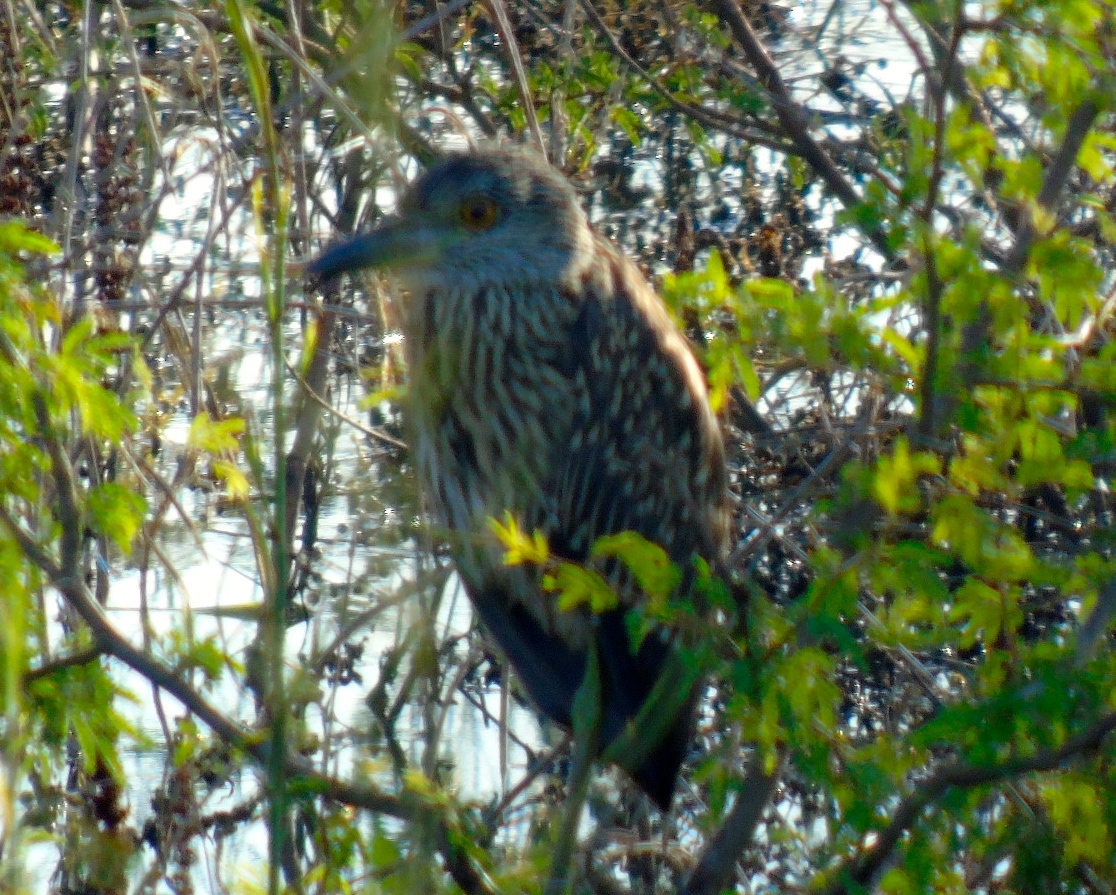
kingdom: Animalia
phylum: Chordata
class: Aves
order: Pelecaniformes
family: Ardeidae
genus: Nyctanassa
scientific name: Nyctanassa violacea
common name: Yellow-crowned night heron
